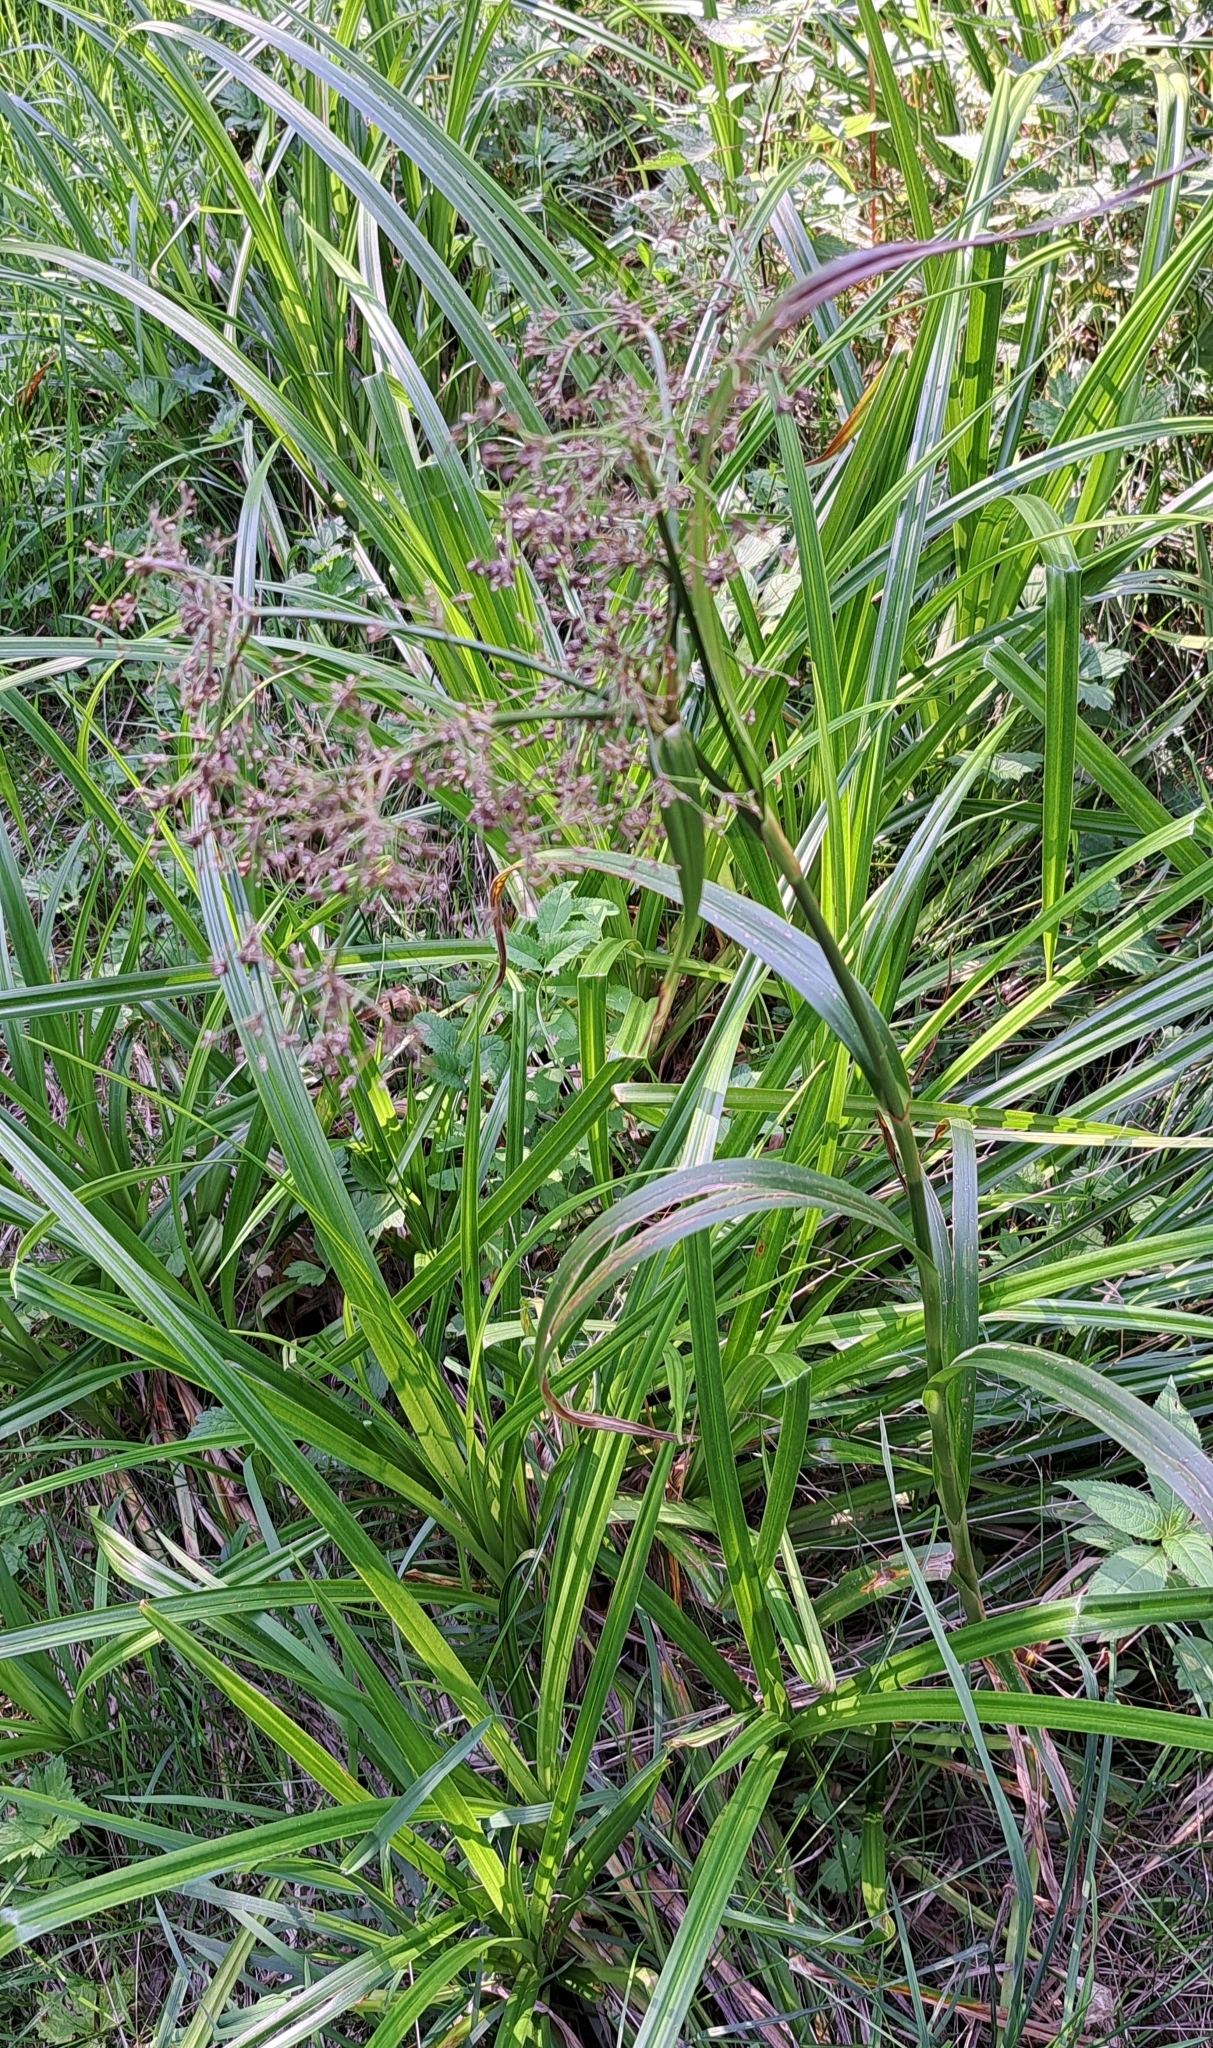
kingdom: Plantae
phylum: Tracheophyta
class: Liliopsida
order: Poales
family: Cyperaceae
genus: Scirpus
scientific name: Scirpus sylvaticus
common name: Wood club-rush
